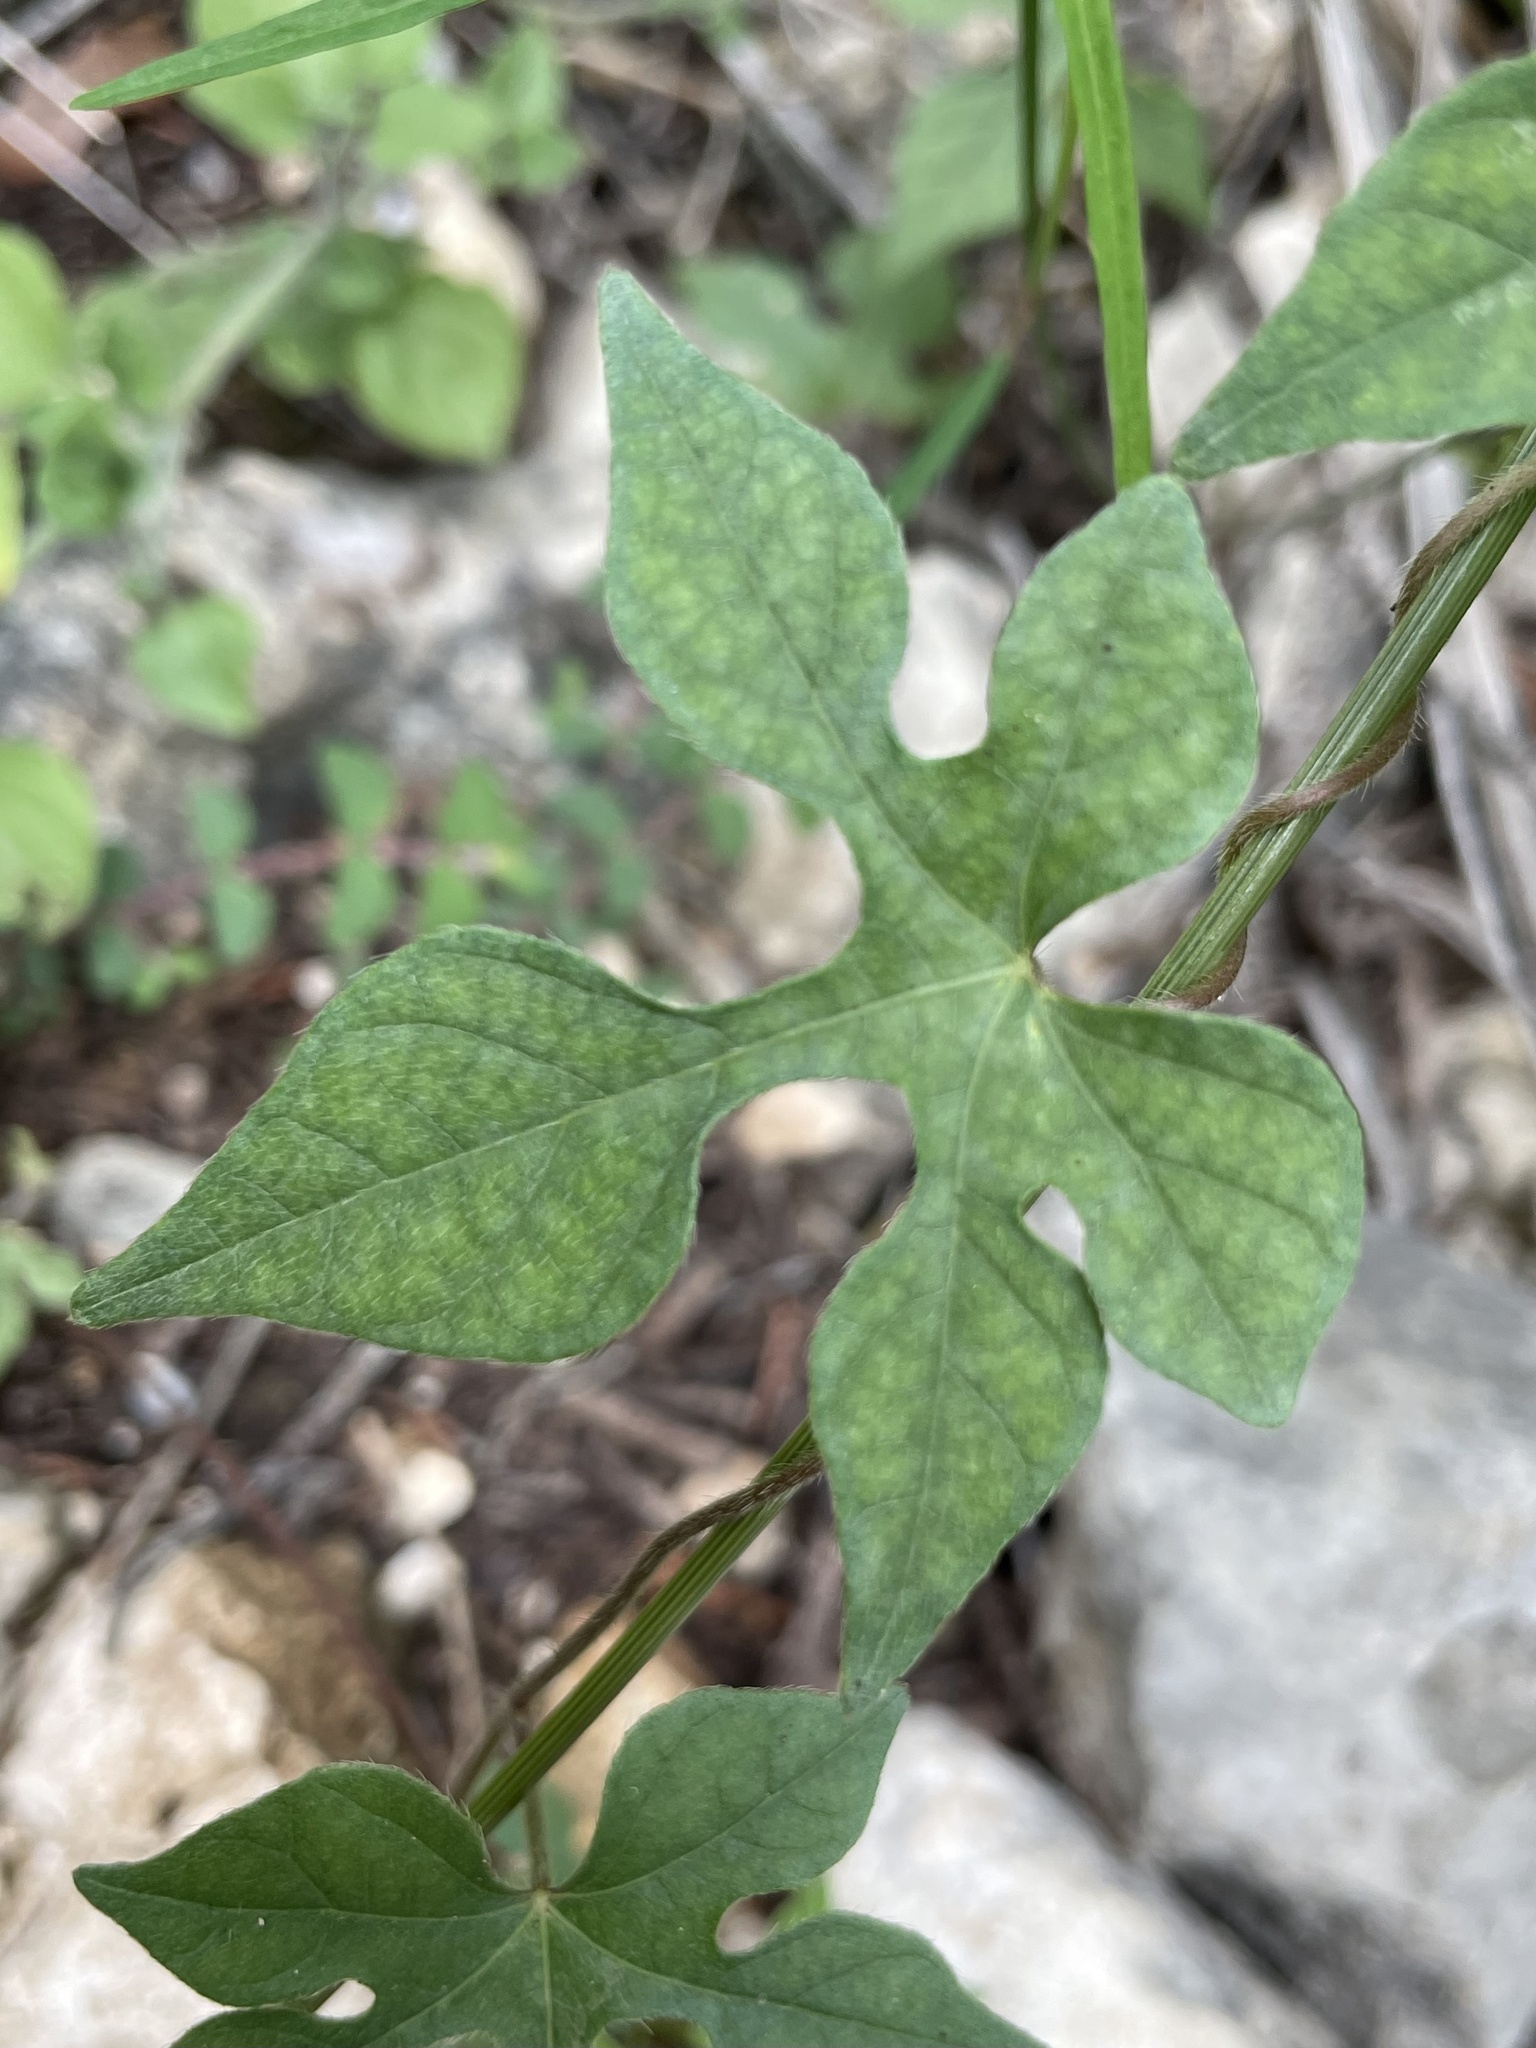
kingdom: Plantae
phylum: Tracheophyta
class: Magnoliopsida
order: Solanales
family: Convolvulaceae
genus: Ipomoea
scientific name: Ipomoea lindheimeri
